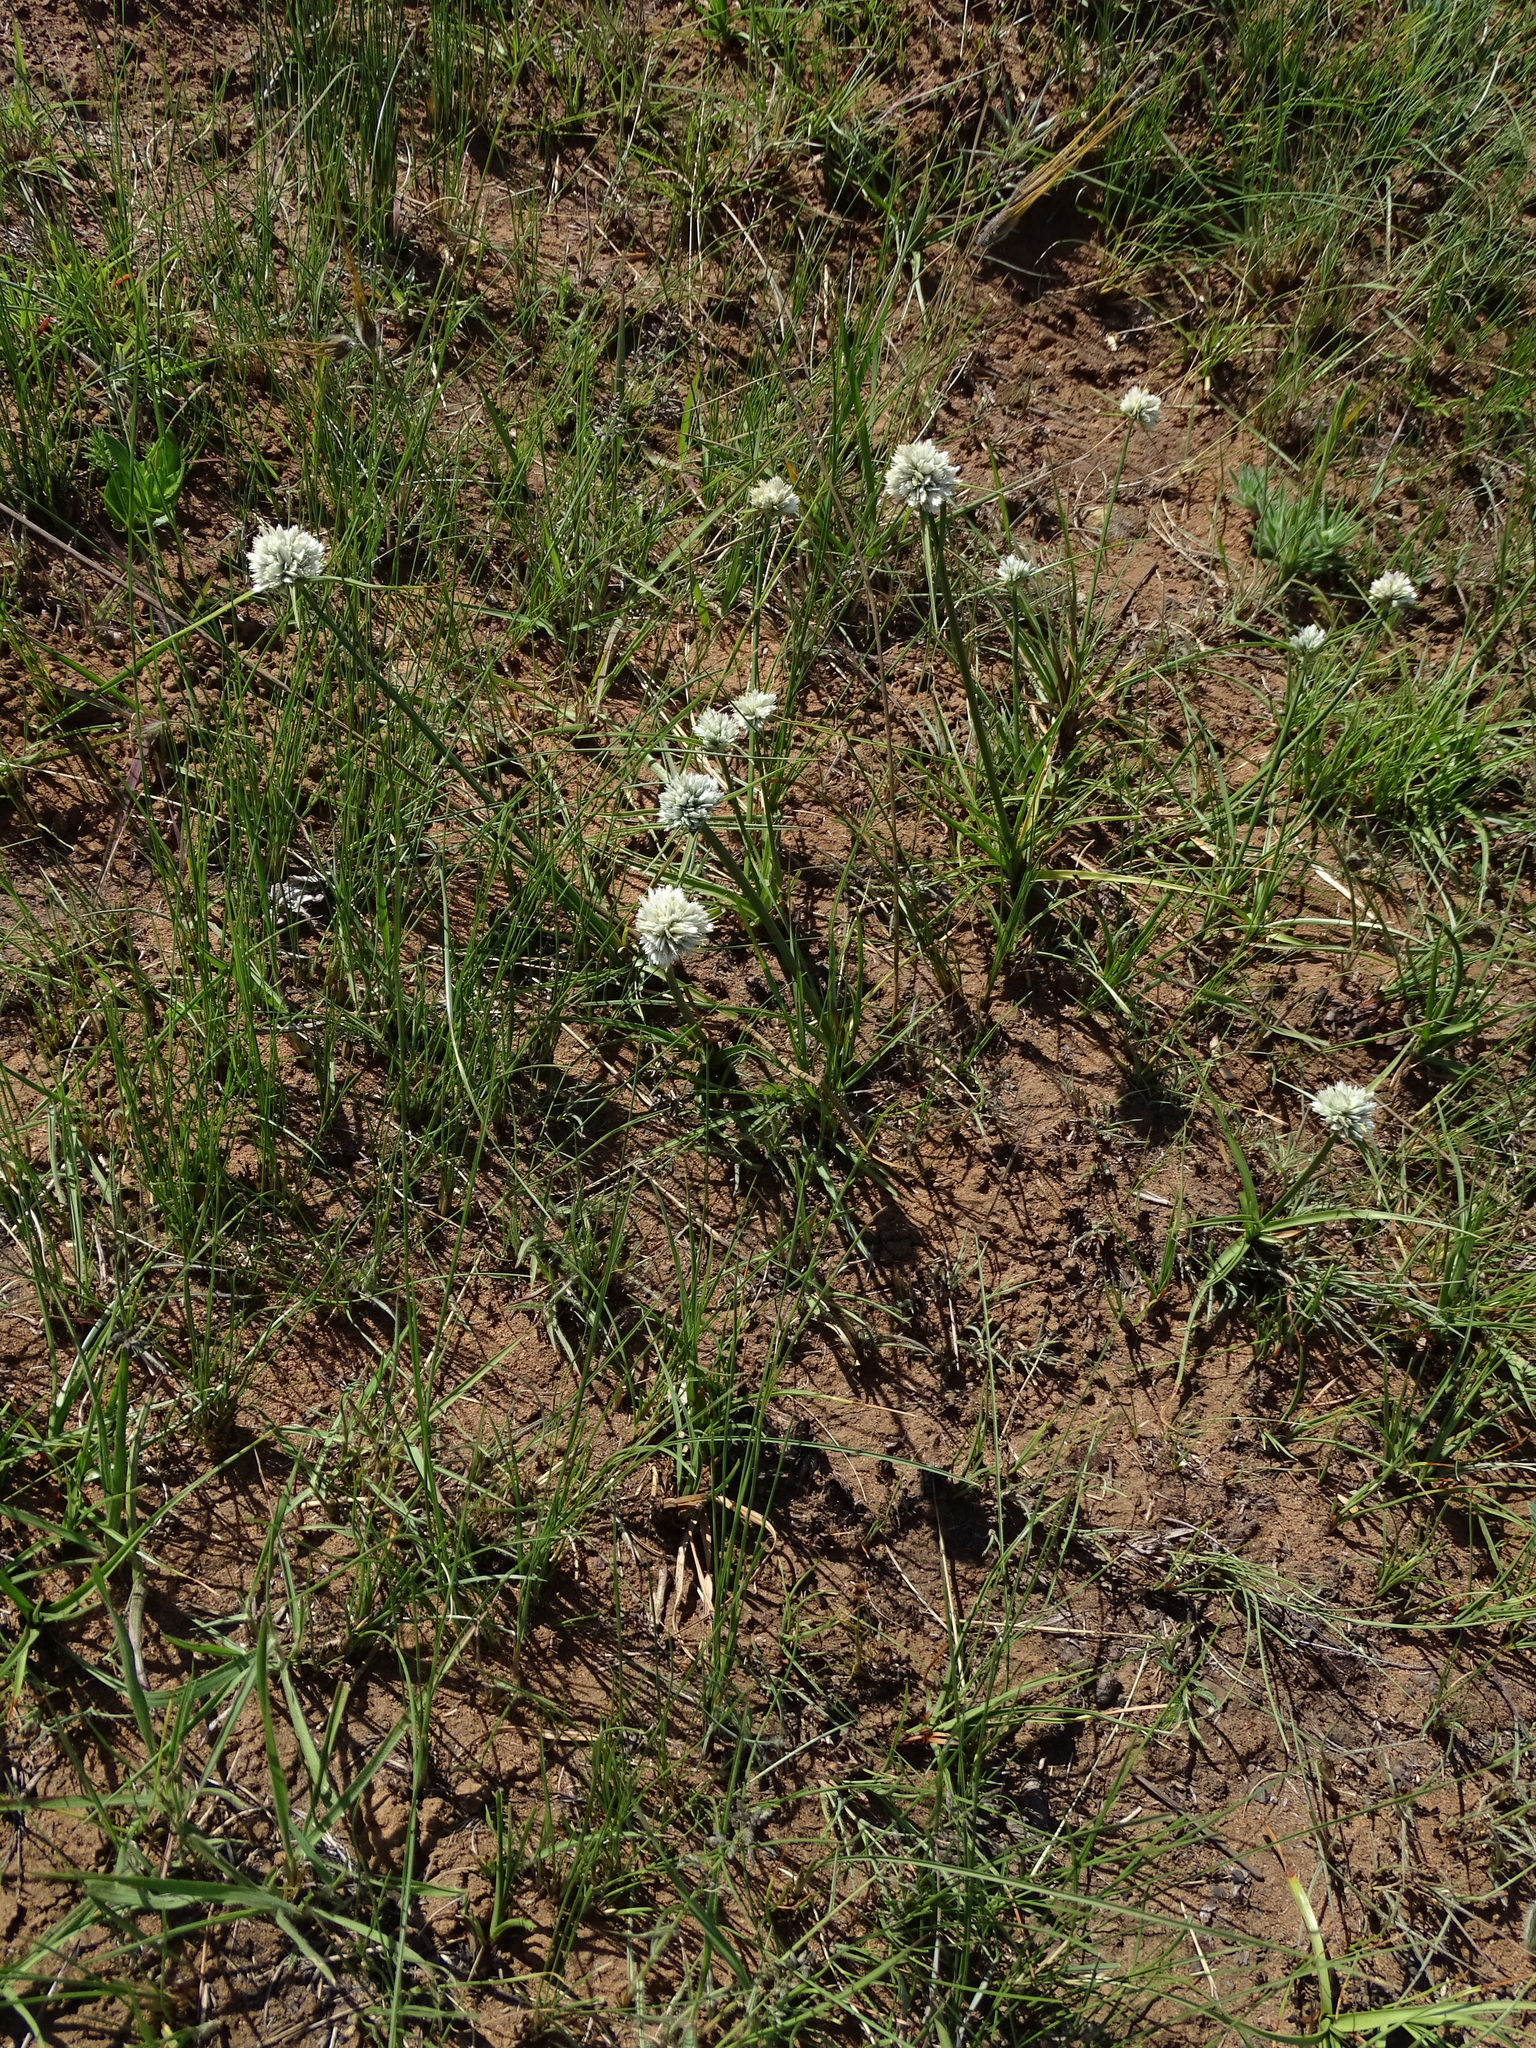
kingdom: Plantae
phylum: Tracheophyta
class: Liliopsida
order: Poales
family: Cyperaceae
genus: Cyperus
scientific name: Cyperus niveus
